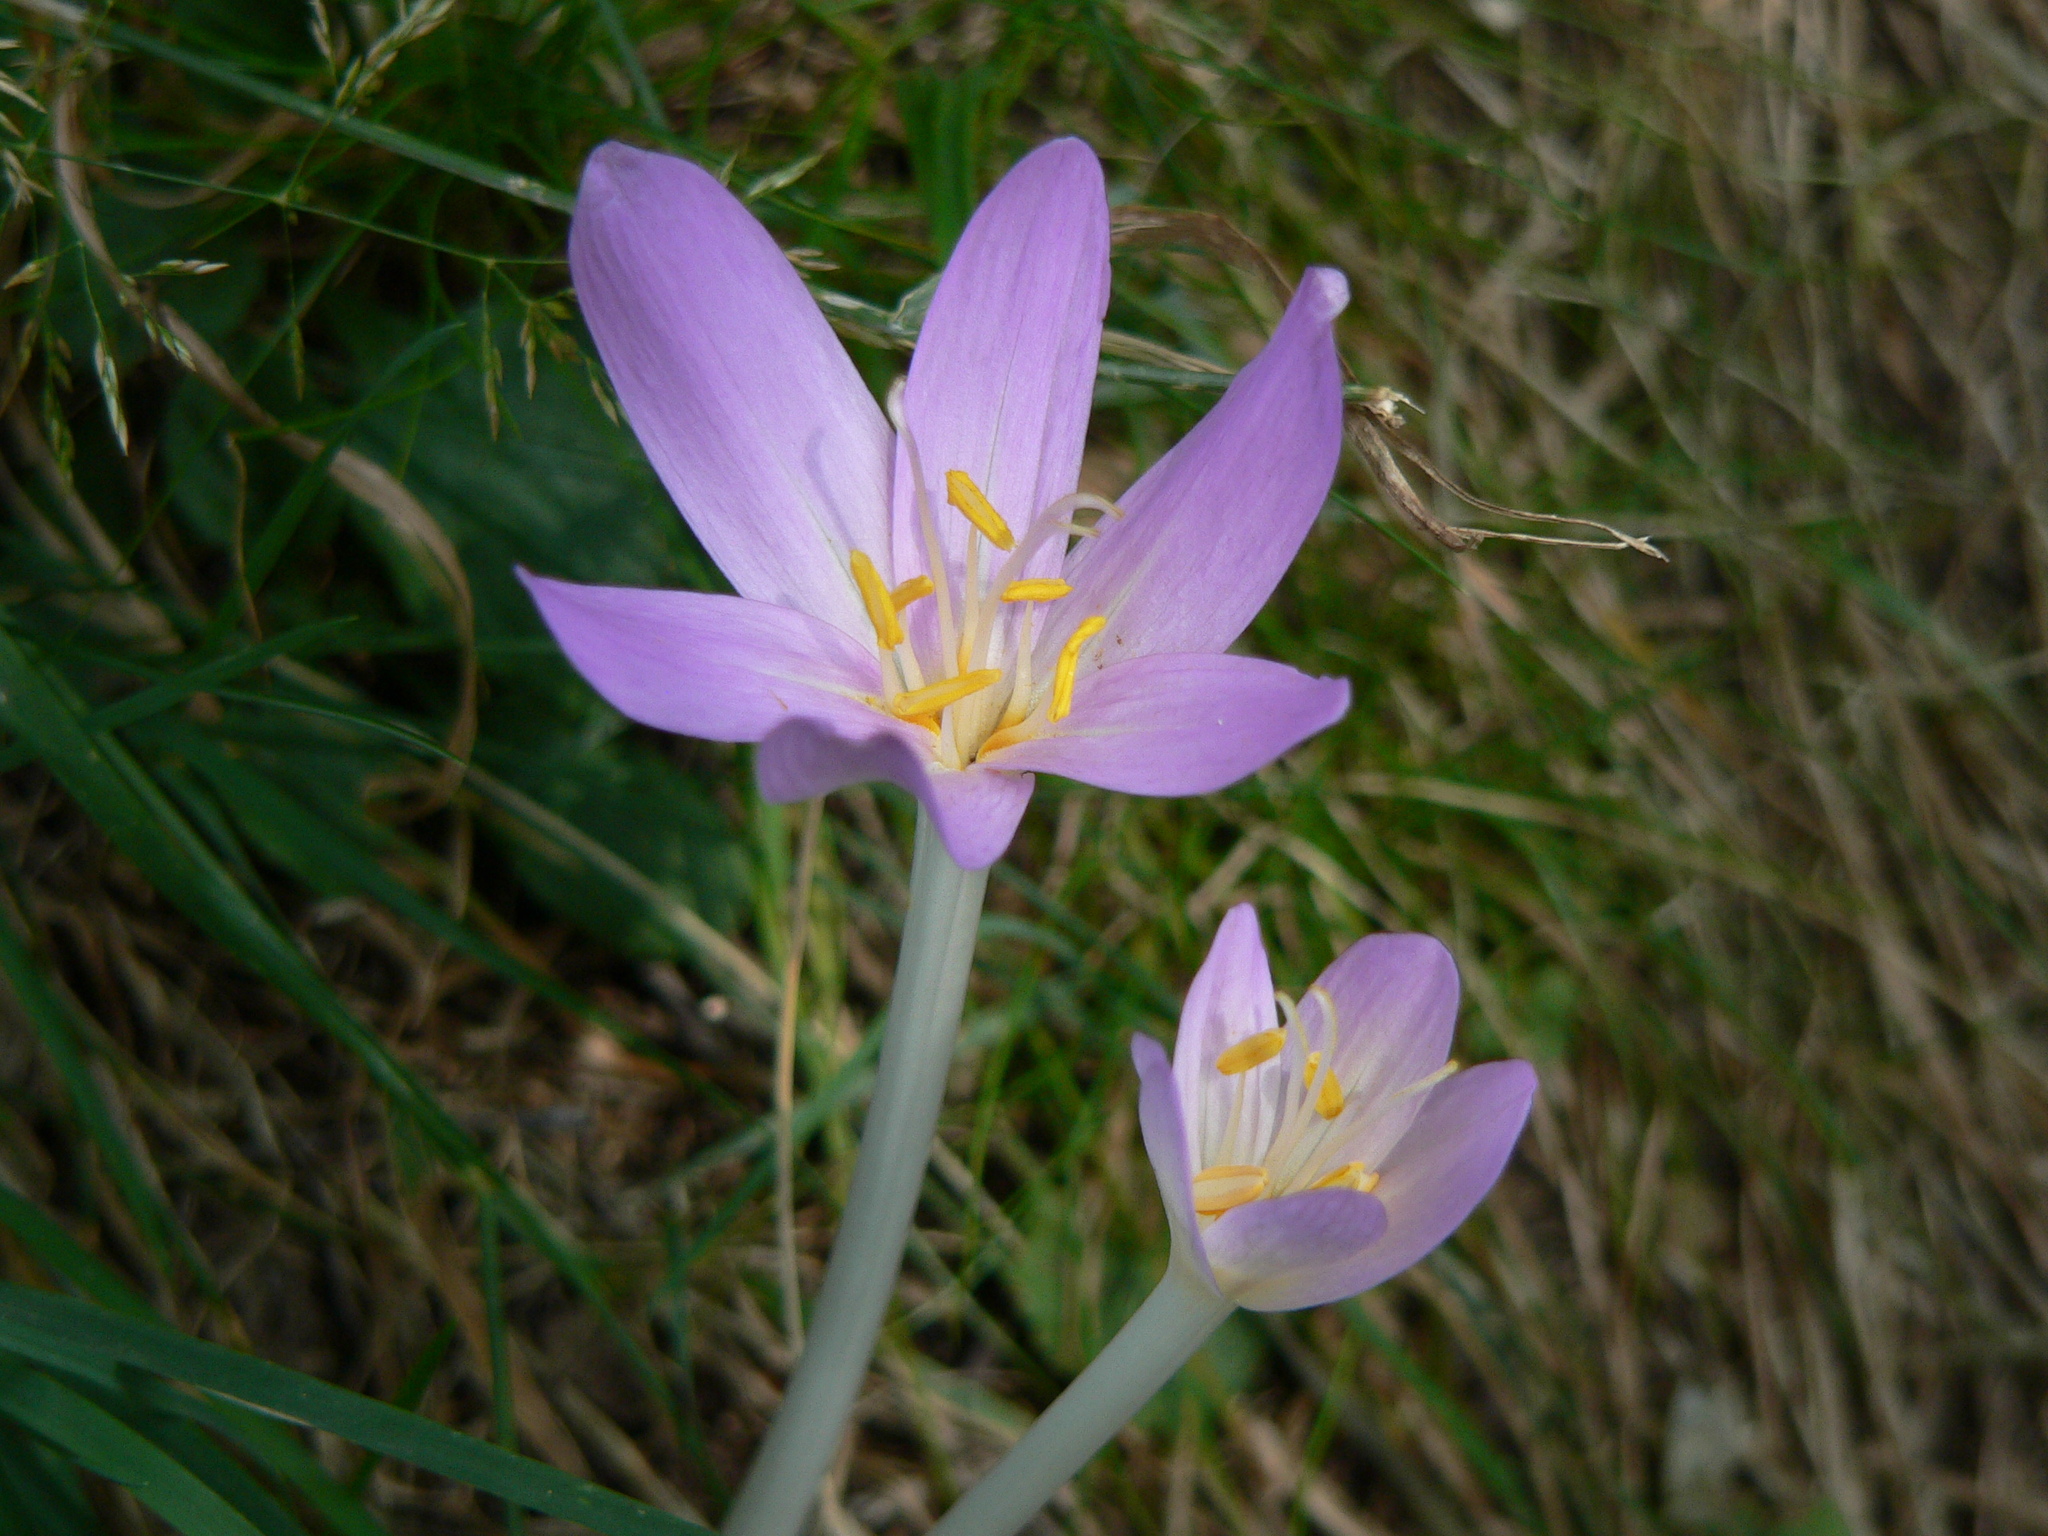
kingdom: Plantae
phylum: Tracheophyta
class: Liliopsida
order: Liliales
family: Colchicaceae
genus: Colchicum
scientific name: Colchicum autumnale
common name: Autumn crocus
